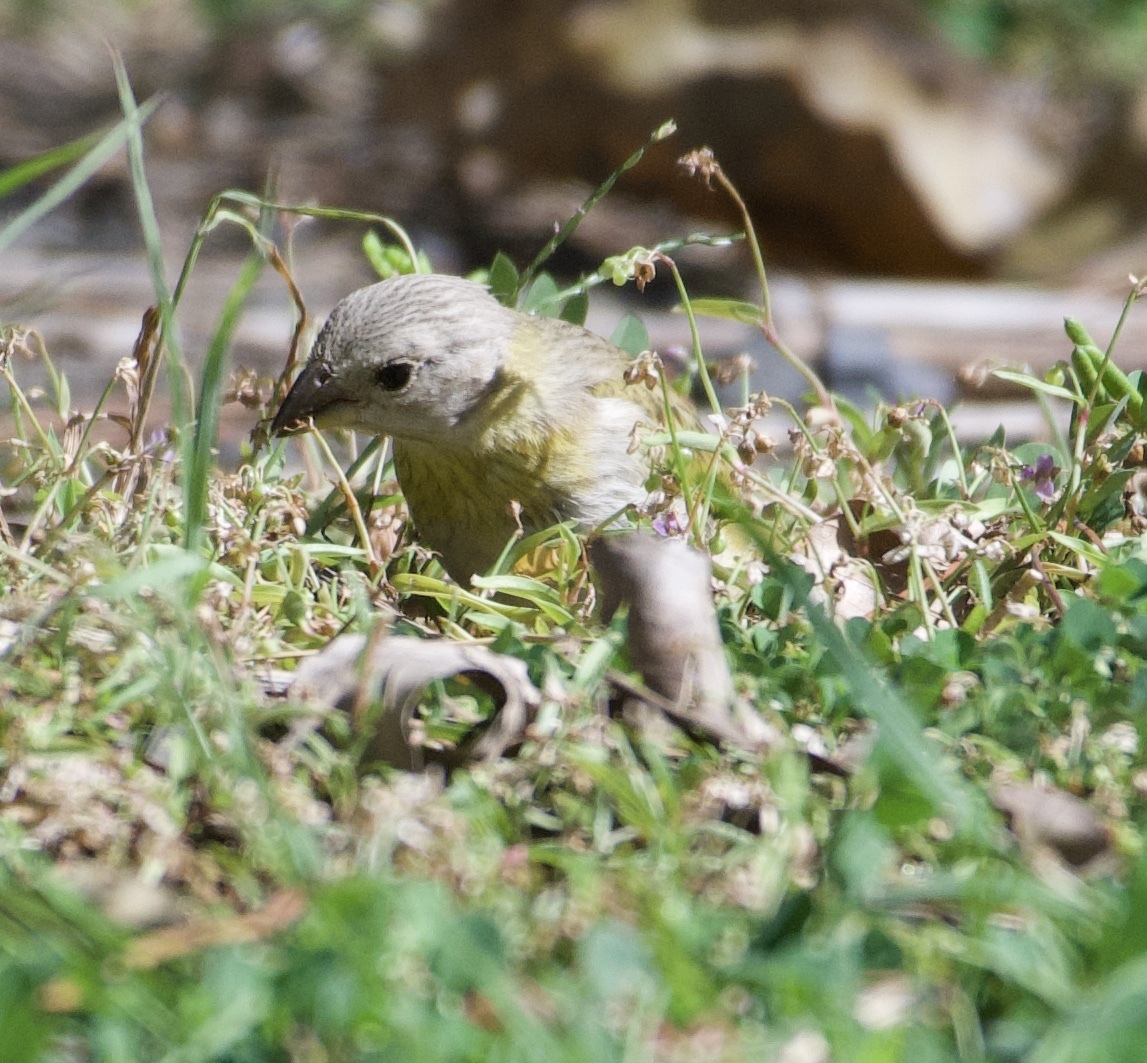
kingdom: Animalia
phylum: Chordata
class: Aves
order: Passeriformes
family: Thraupidae
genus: Sicalis
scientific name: Sicalis flaveola
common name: Saffron finch
